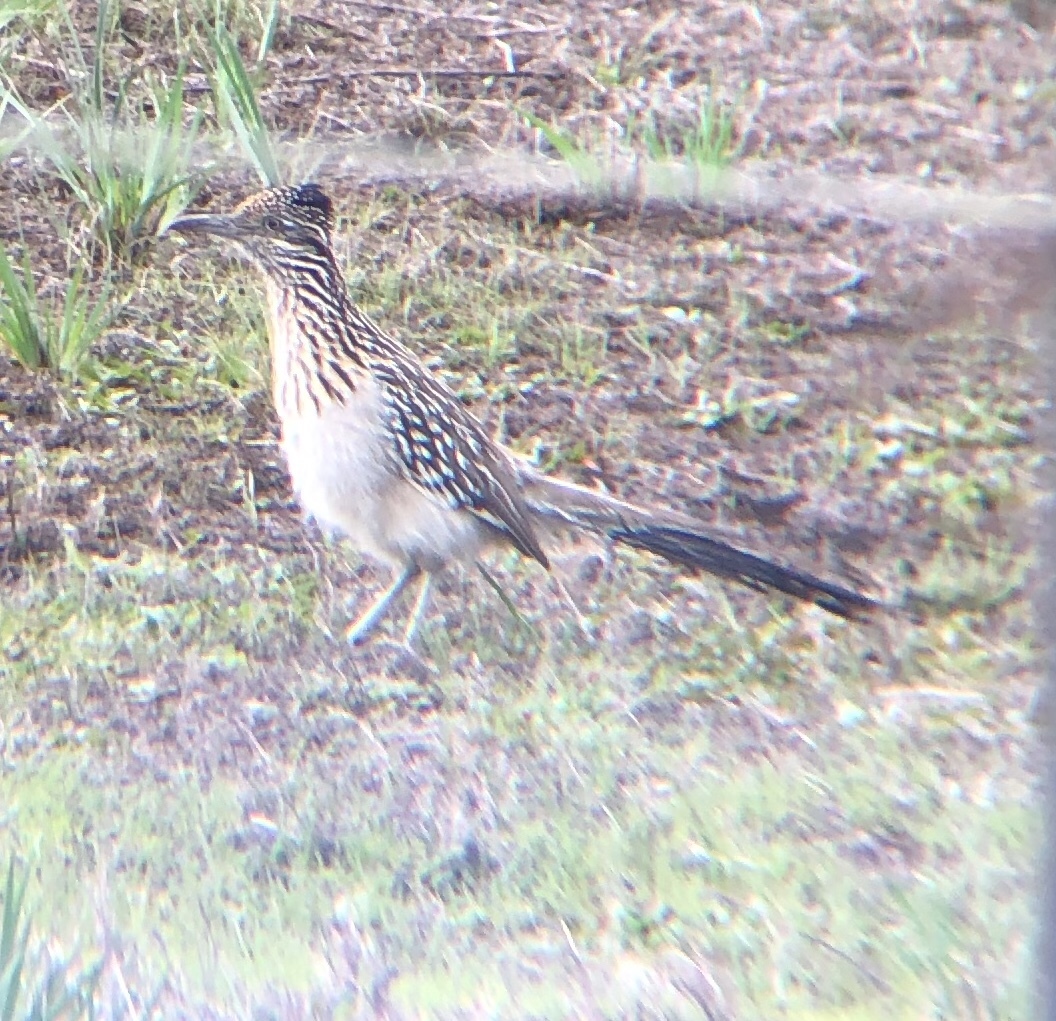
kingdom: Animalia
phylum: Chordata
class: Aves
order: Cuculiformes
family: Cuculidae
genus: Geococcyx
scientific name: Geococcyx californianus
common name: Greater roadrunner
